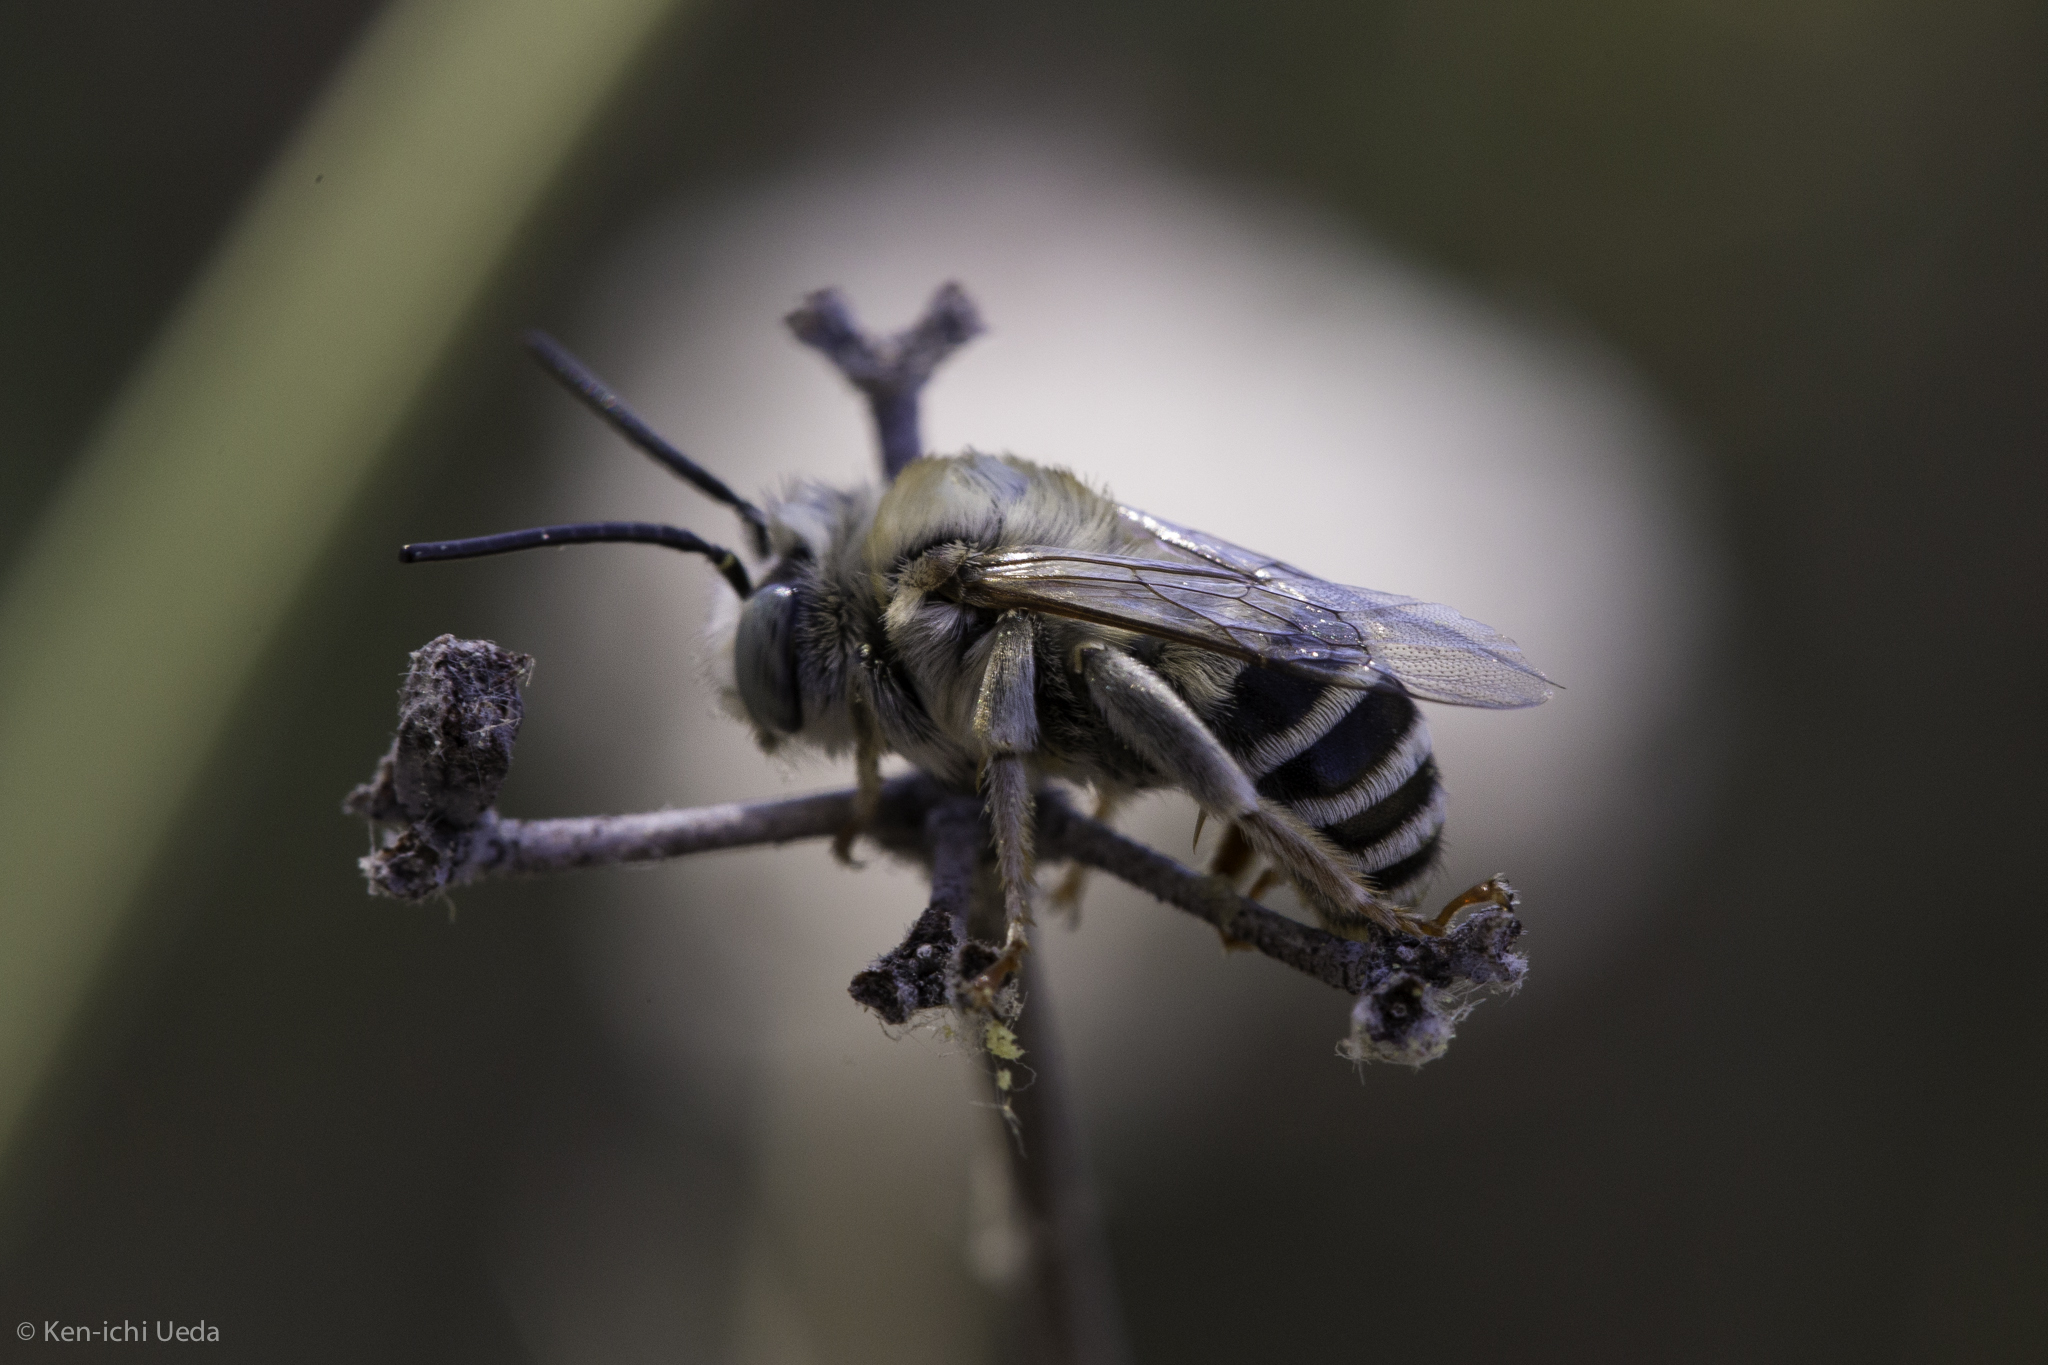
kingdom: Animalia
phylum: Arthropoda
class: Insecta
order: Hymenoptera
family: Apidae
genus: Anthophora
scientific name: Anthophora urbana
